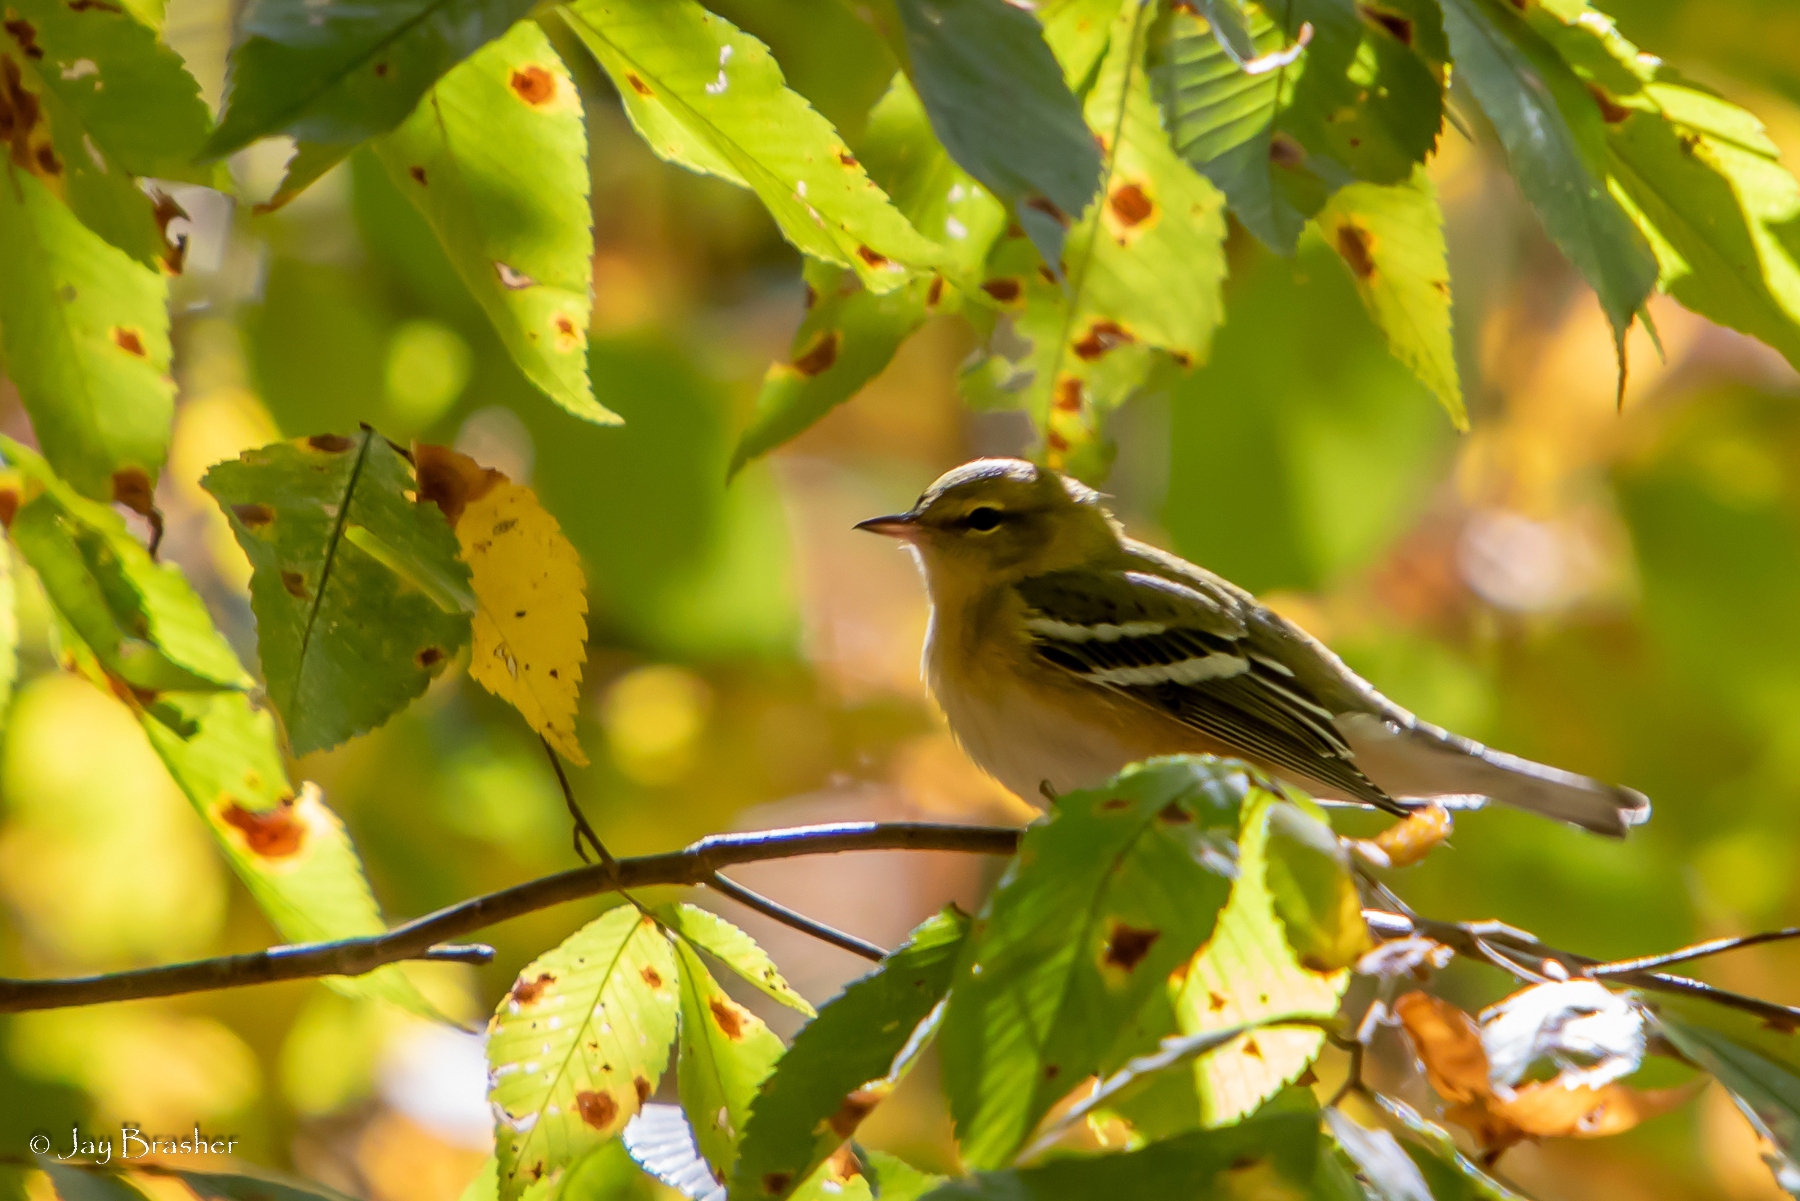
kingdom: Animalia
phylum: Chordata
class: Aves
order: Passeriformes
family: Parulidae
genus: Setophaga
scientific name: Setophaga castanea
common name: Bay-breasted warbler
